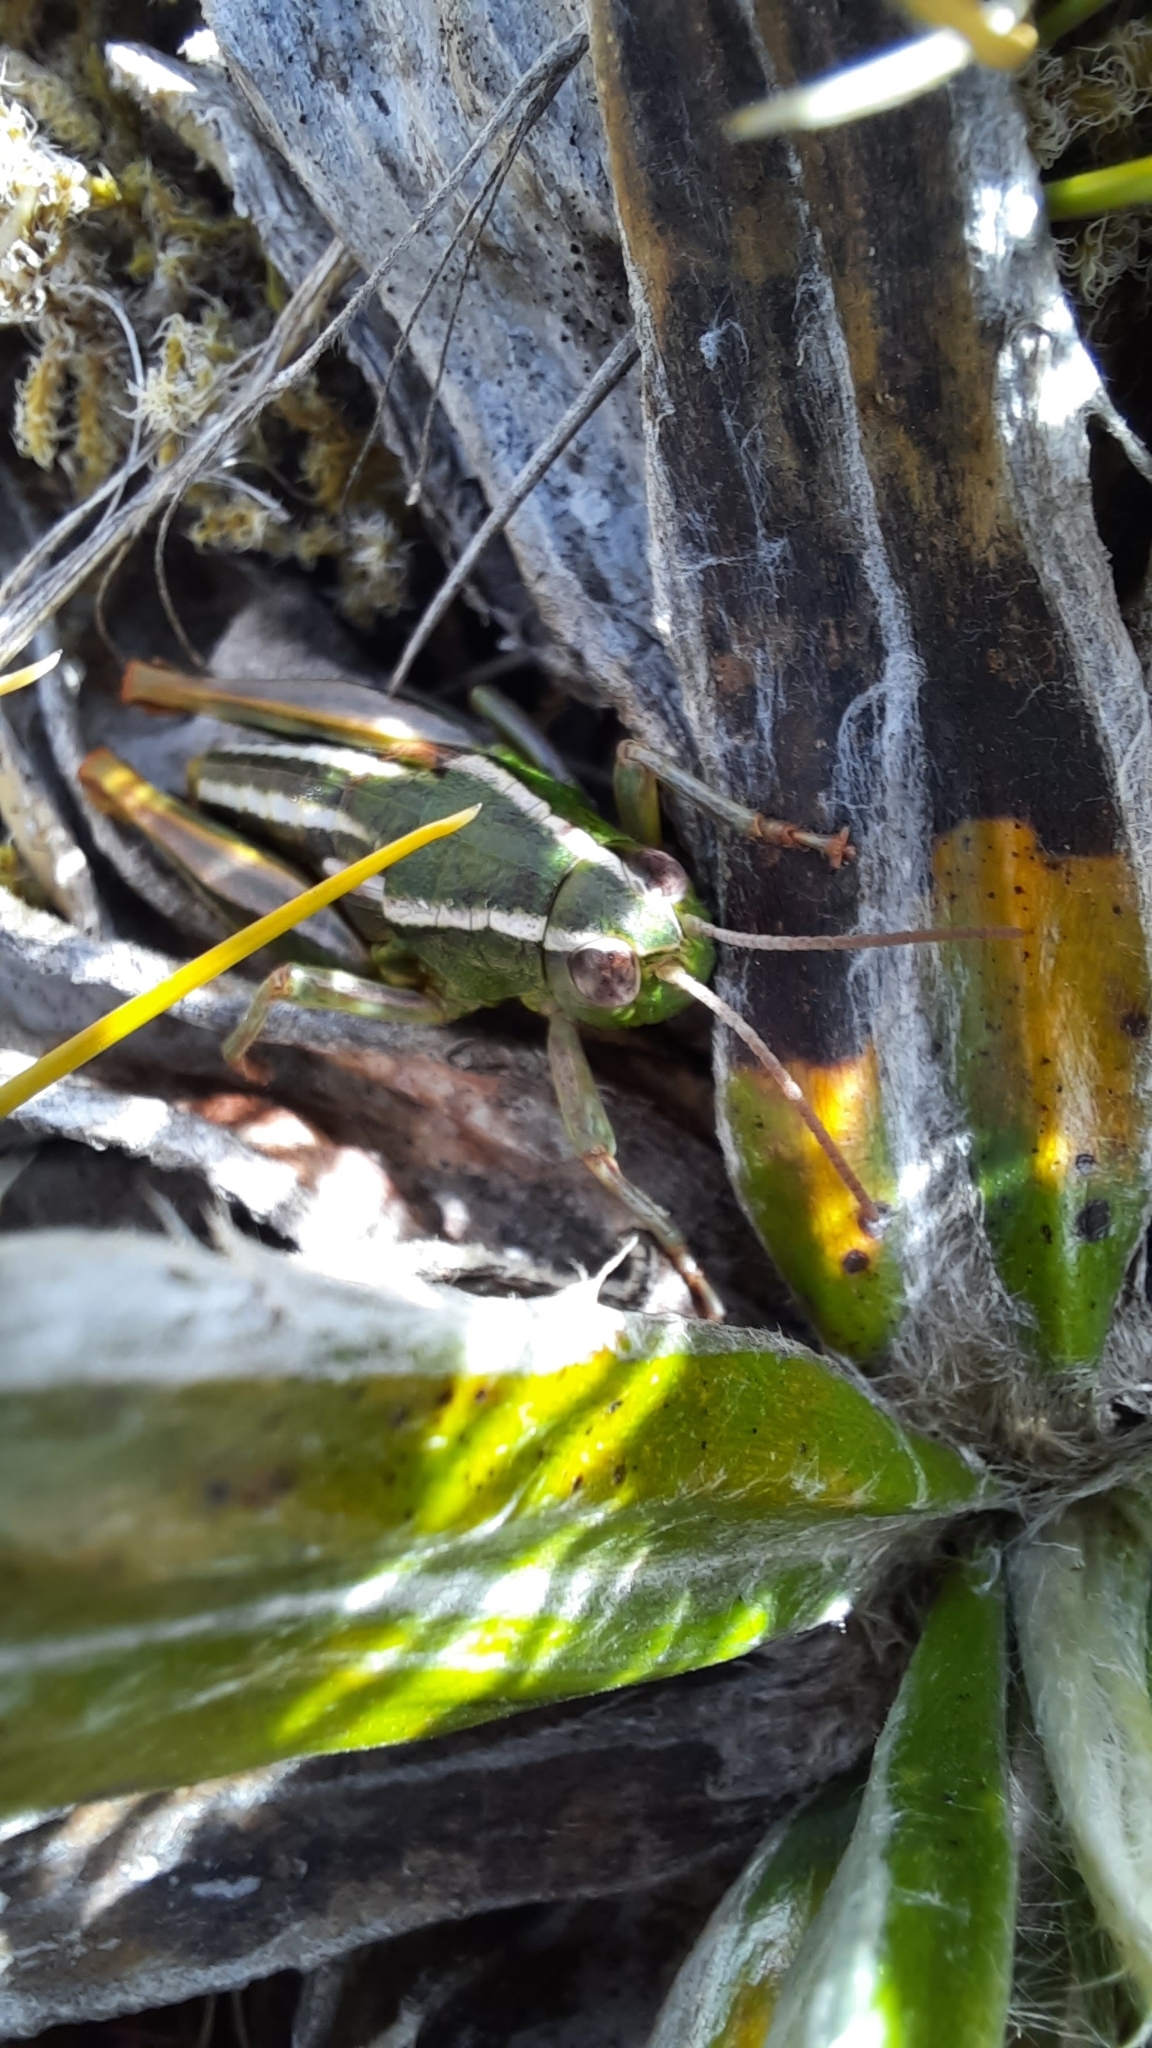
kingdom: Animalia
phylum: Arthropoda
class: Insecta
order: Orthoptera
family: Acrididae
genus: Sigaus
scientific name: Sigaus
